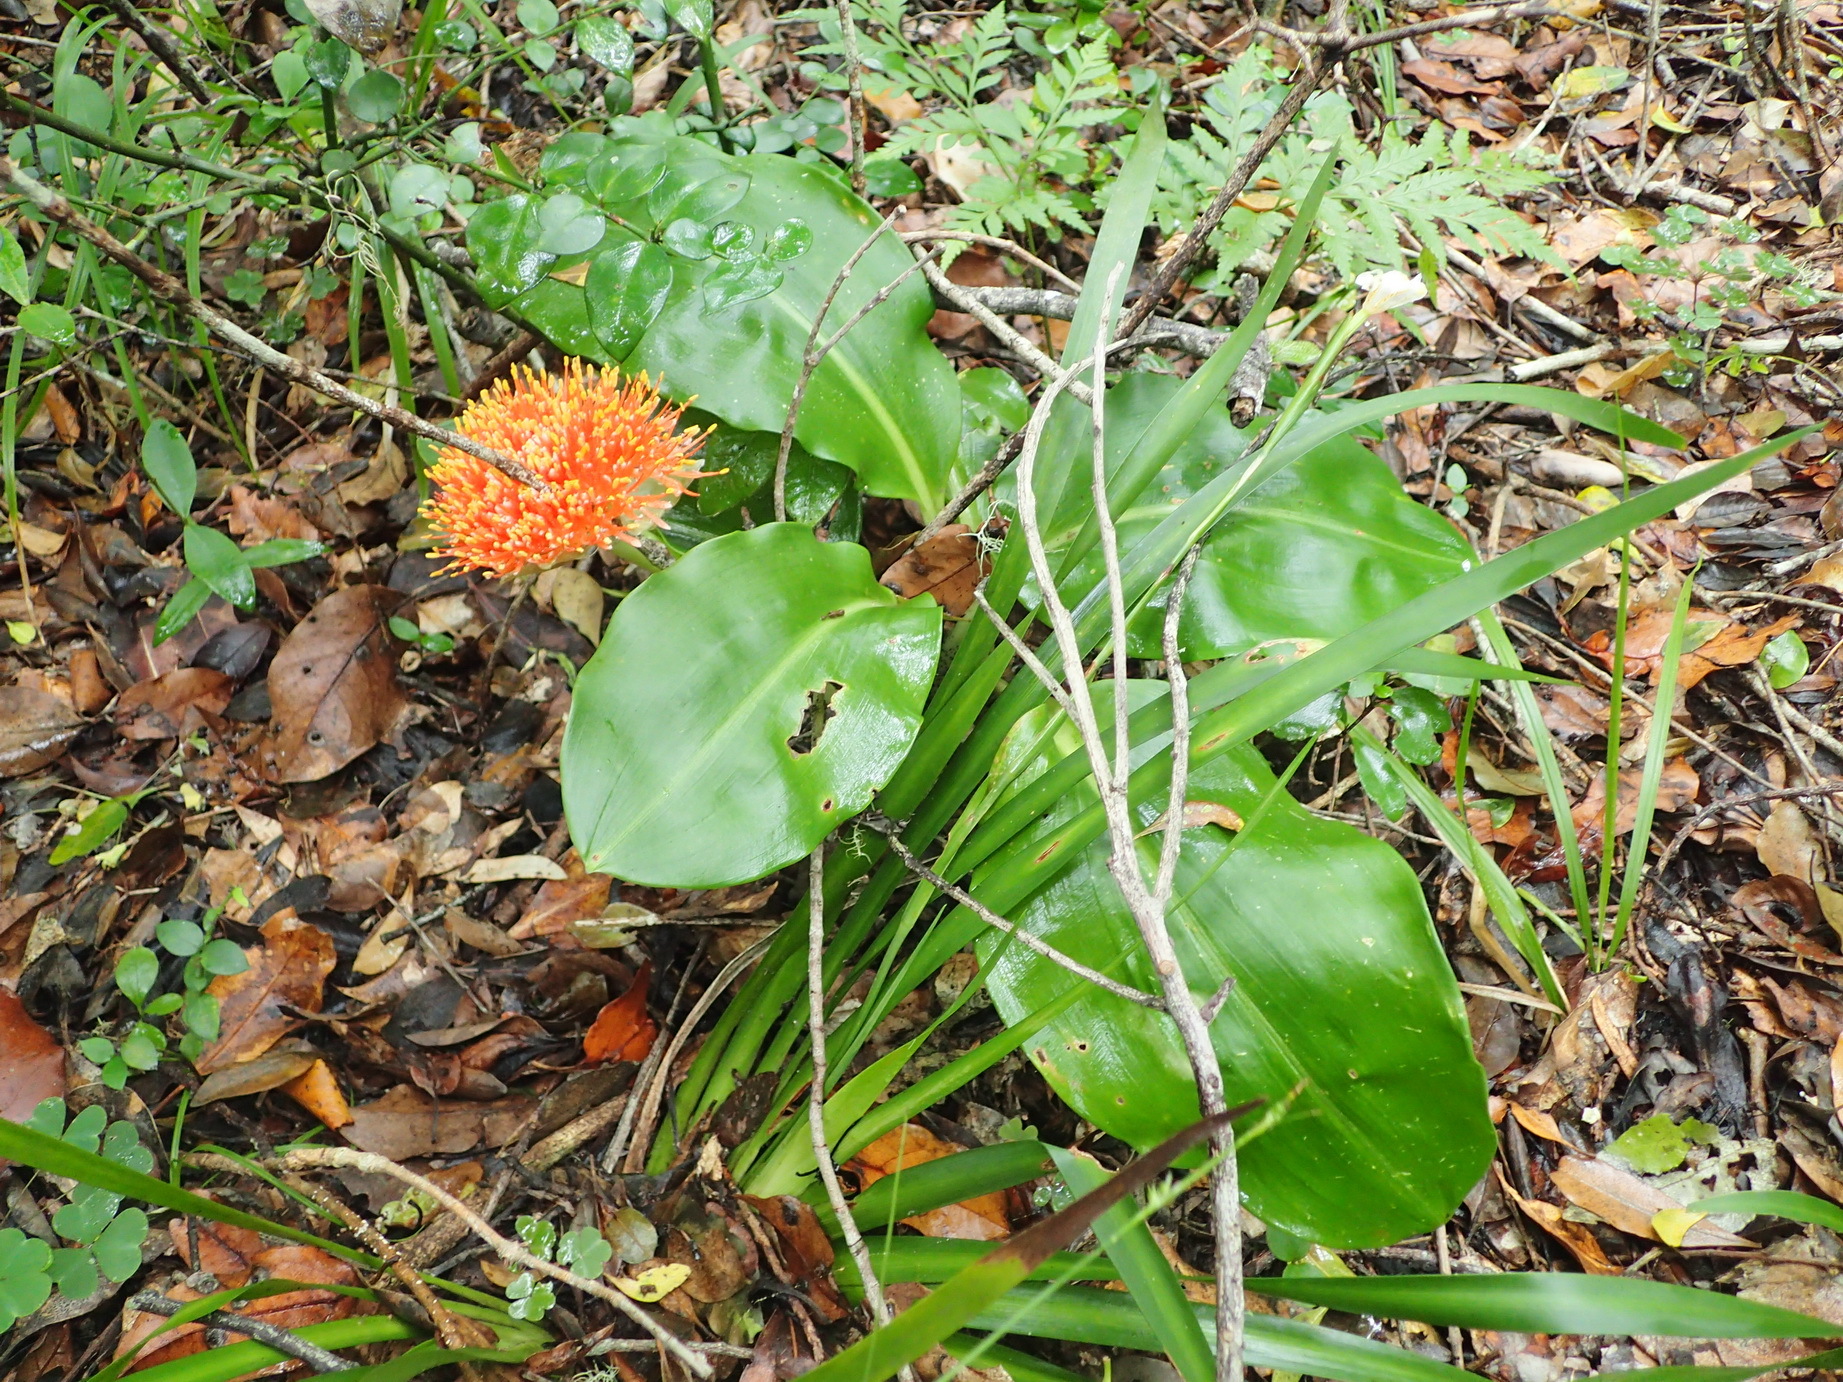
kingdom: Plantae
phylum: Tracheophyta
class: Liliopsida
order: Asparagales
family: Amaryllidaceae
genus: Scadoxus
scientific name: Scadoxus puniceus
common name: Royal-paintbrush
